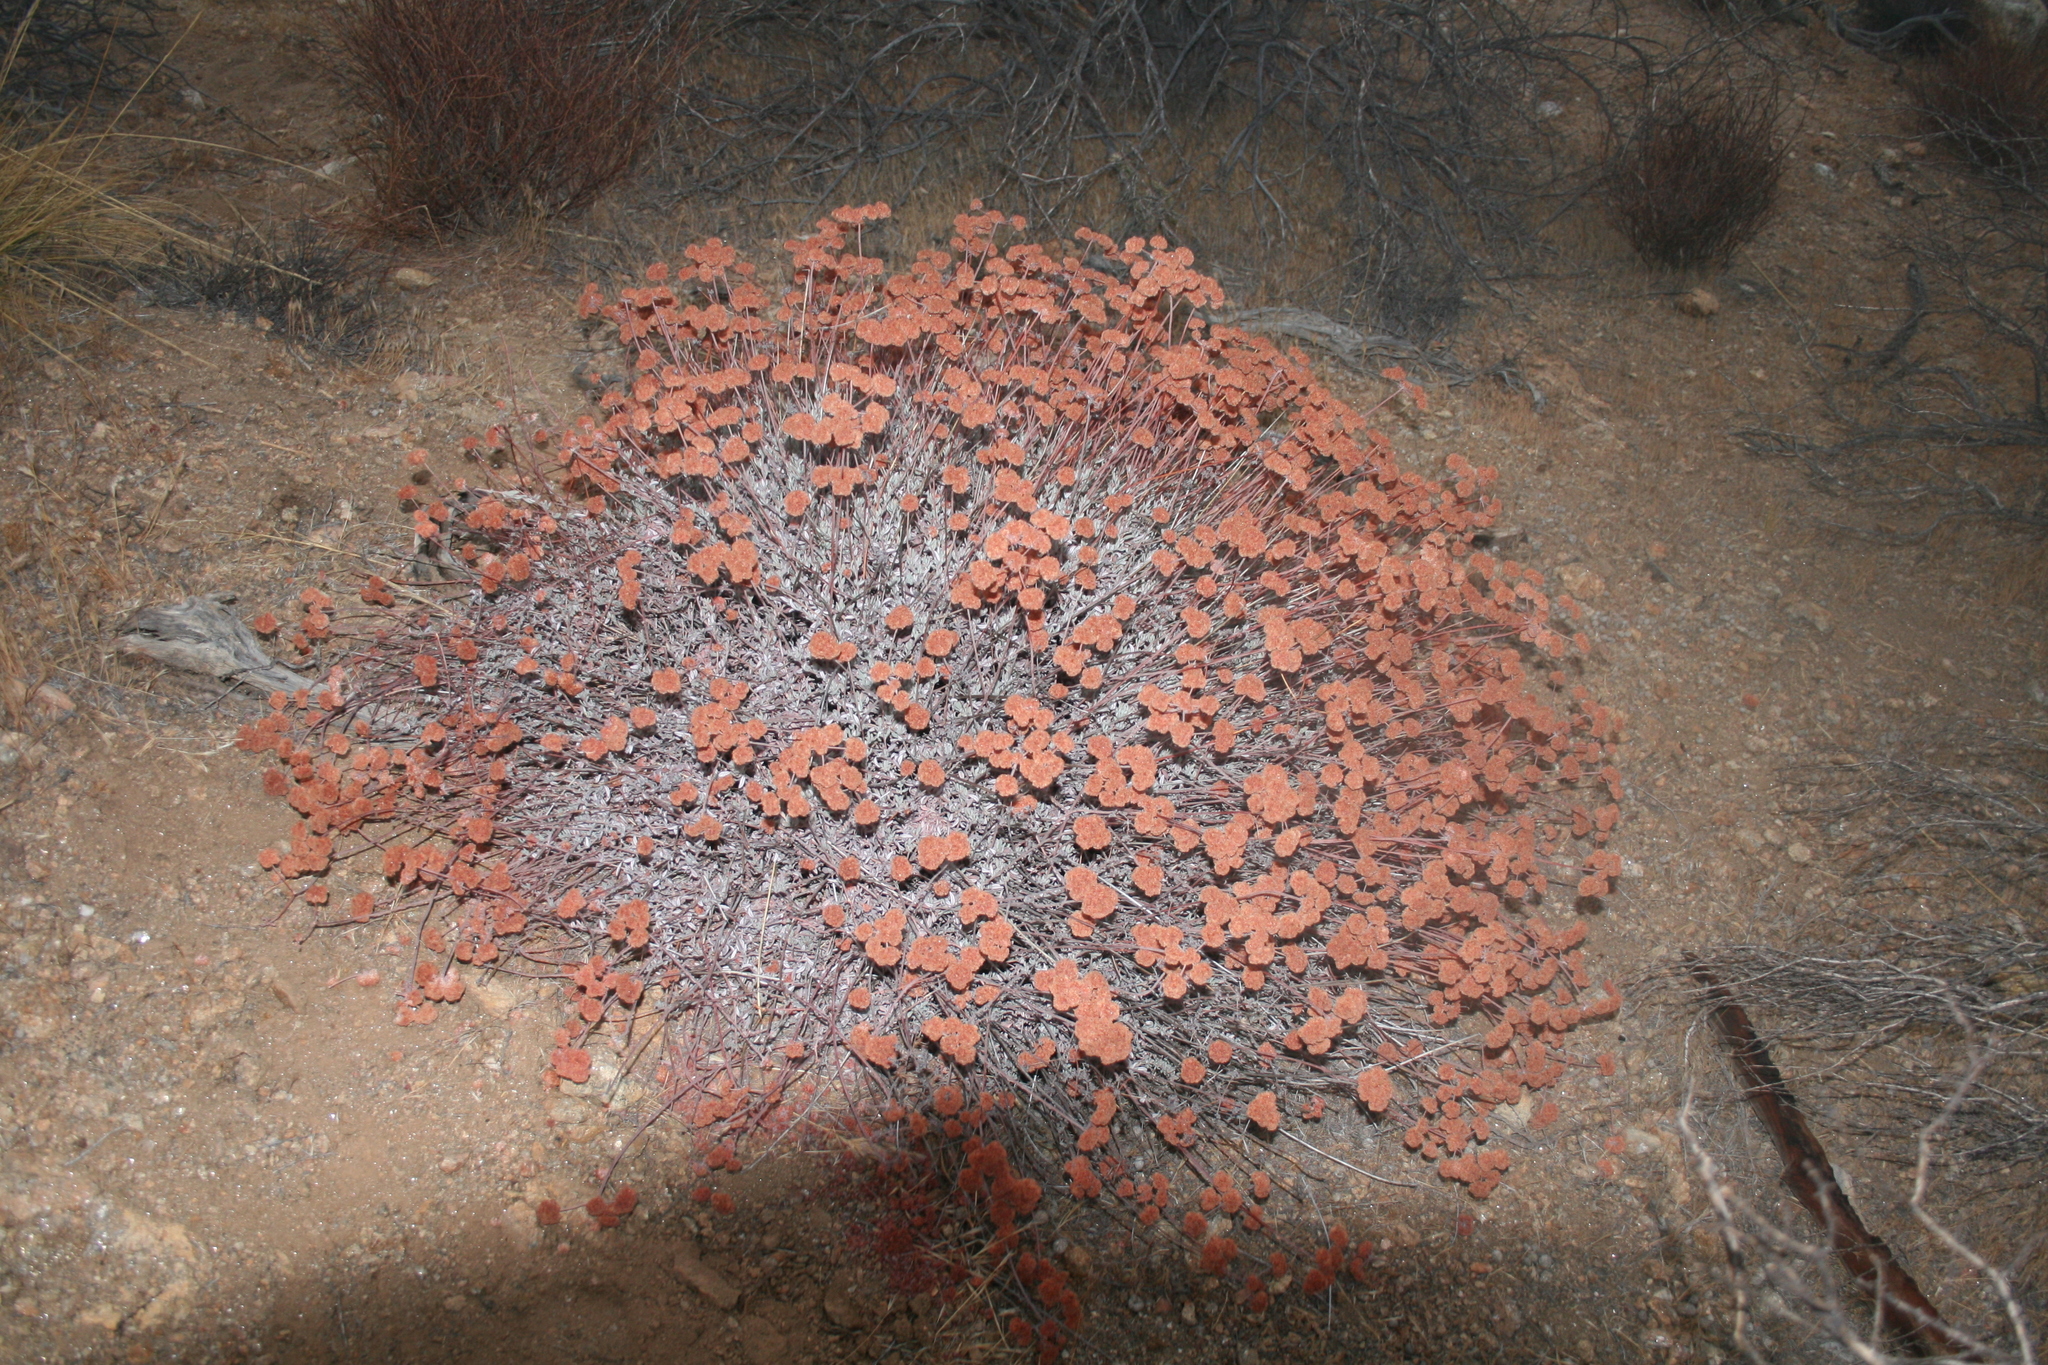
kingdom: Plantae
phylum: Tracheophyta
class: Magnoliopsida
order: Caryophyllales
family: Polygonaceae
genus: Eriogonum
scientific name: Eriogonum fasciculatum
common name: California wild buckwheat
